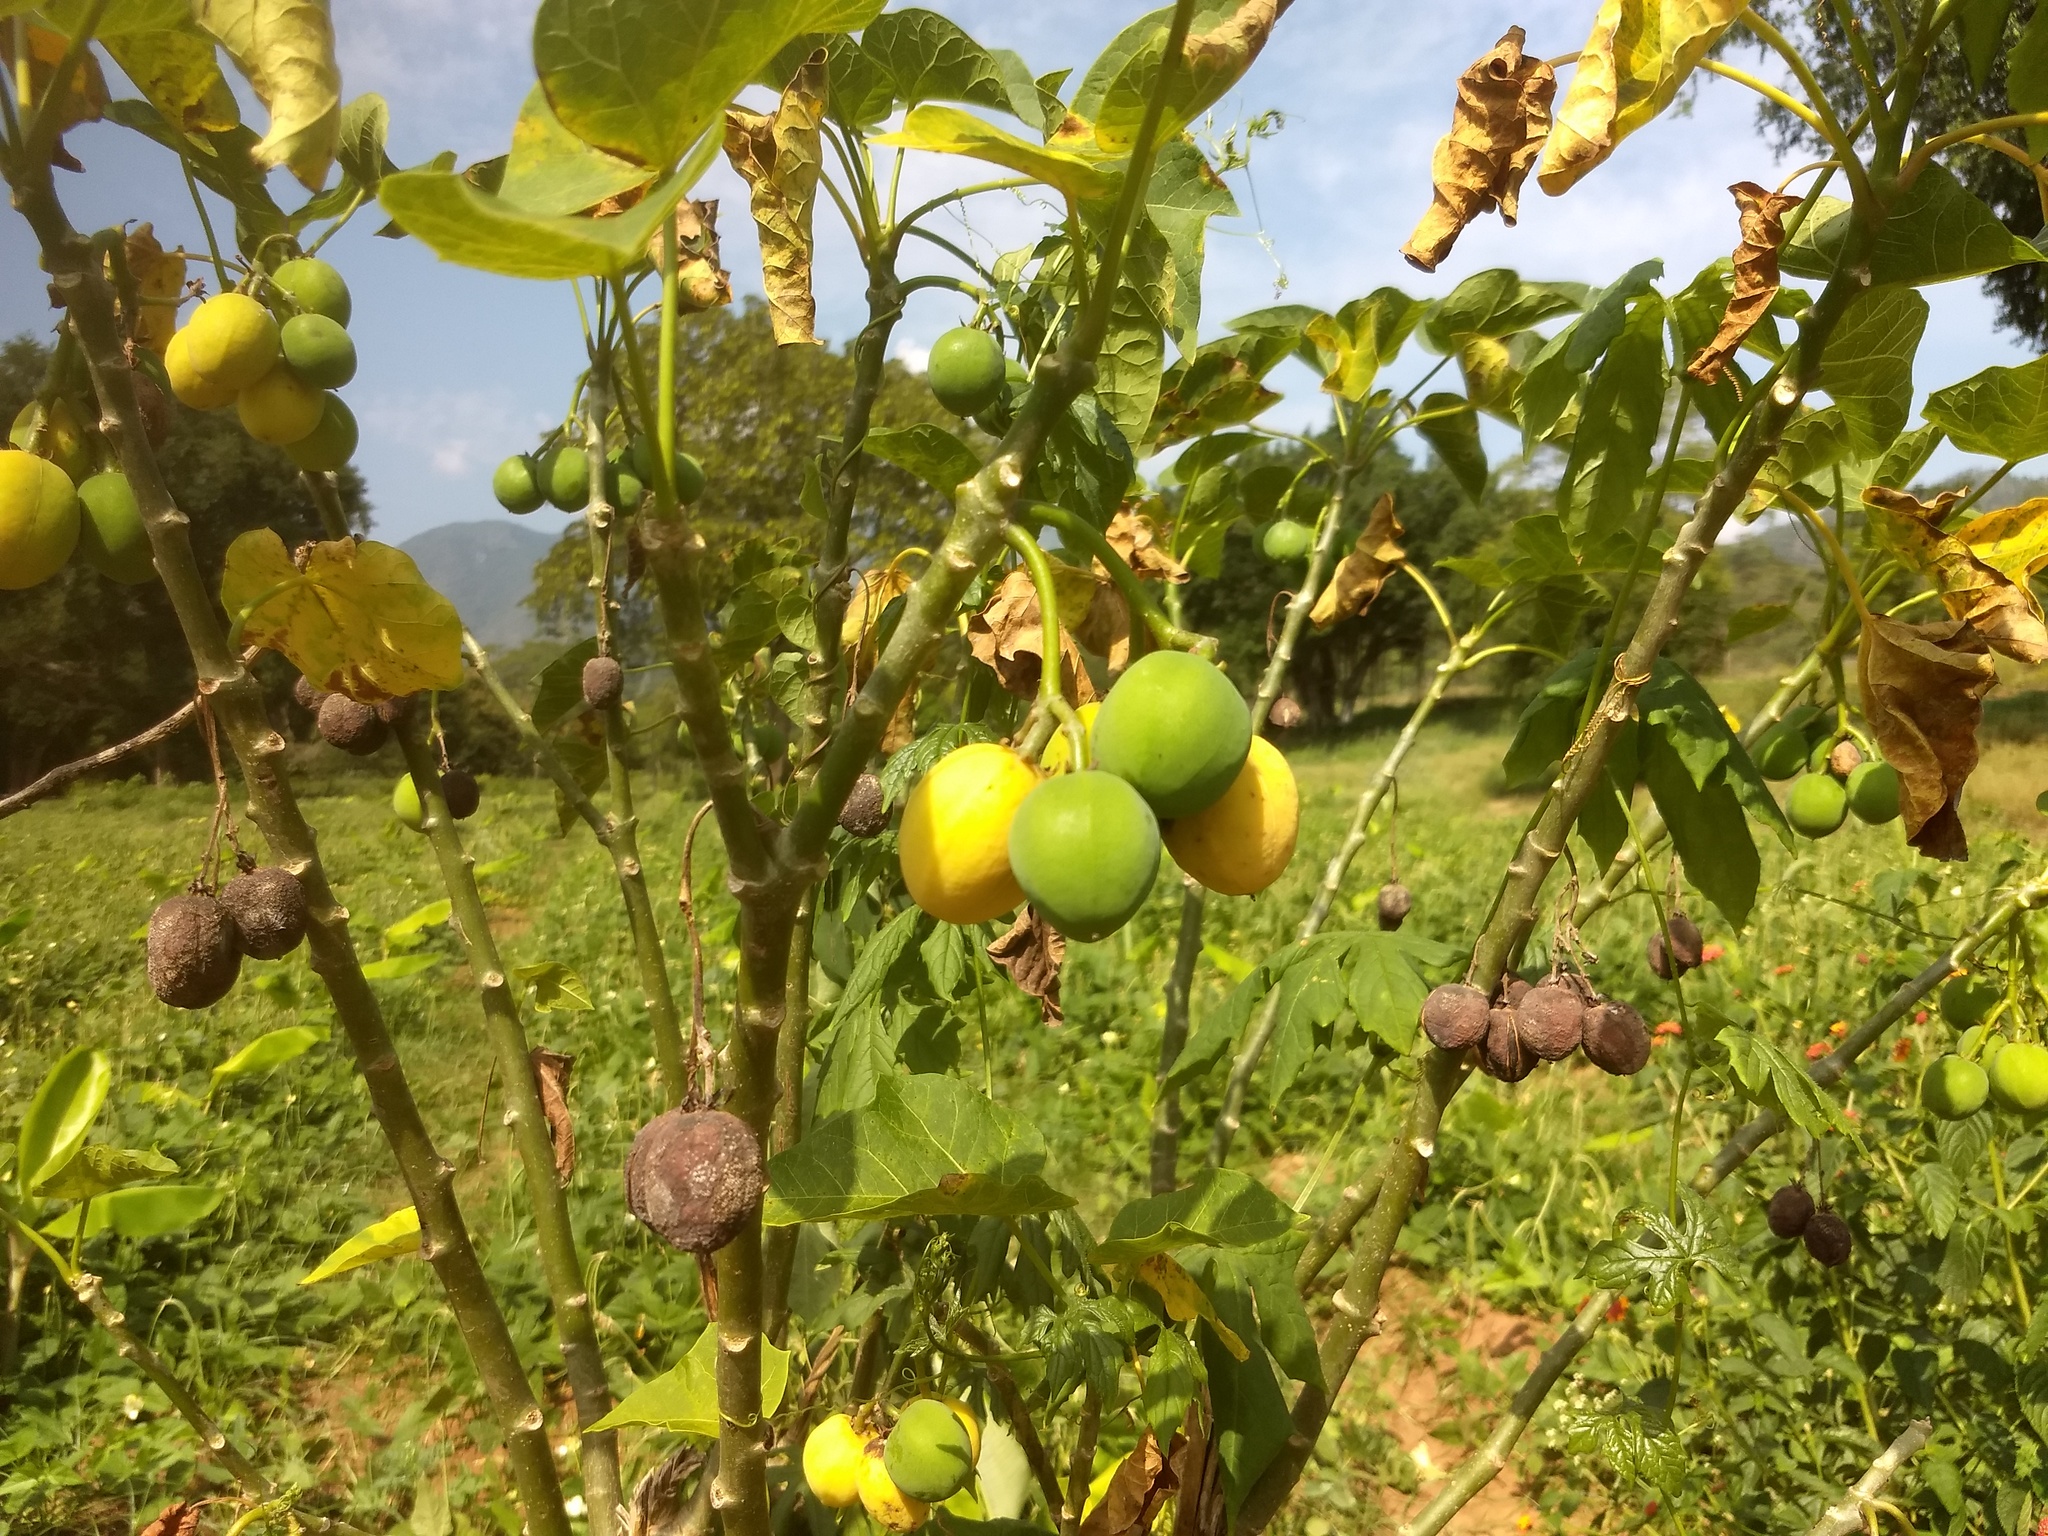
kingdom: Plantae
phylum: Tracheophyta
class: Magnoliopsida
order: Malpighiales
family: Euphorbiaceae
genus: Jatropha
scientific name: Jatropha curcas
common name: Barbados nut
